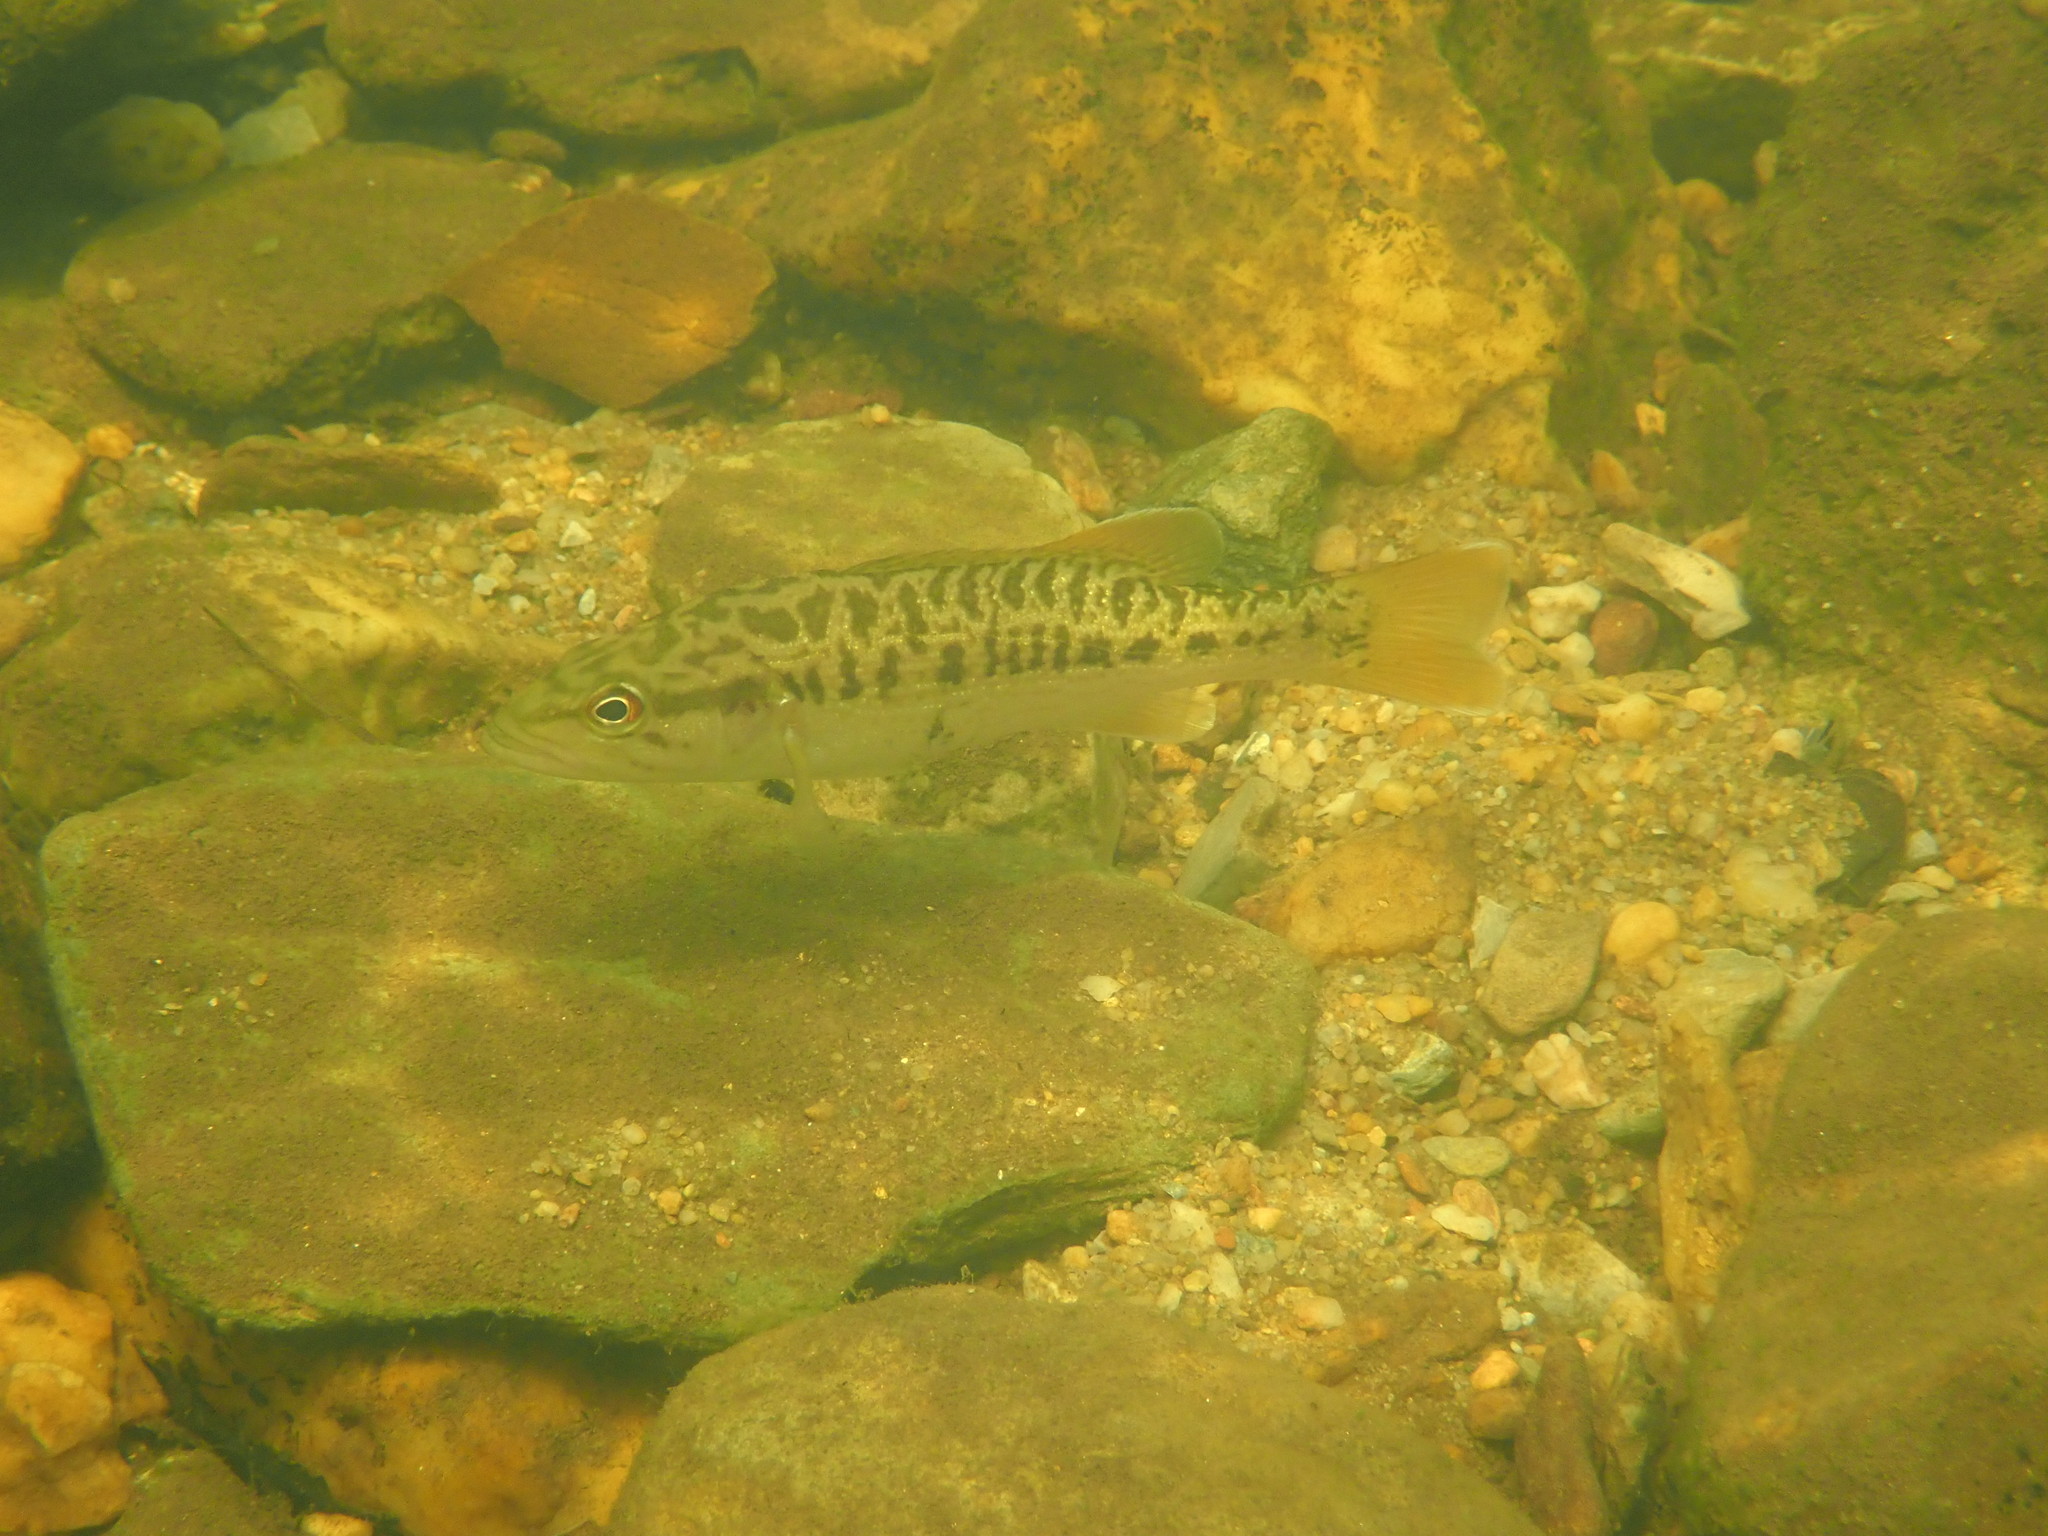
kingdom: Animalia
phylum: Chordata
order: Perciformes
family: Centrarchidae
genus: Micropterus
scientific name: Micropterus coosae
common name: Redeye bass
